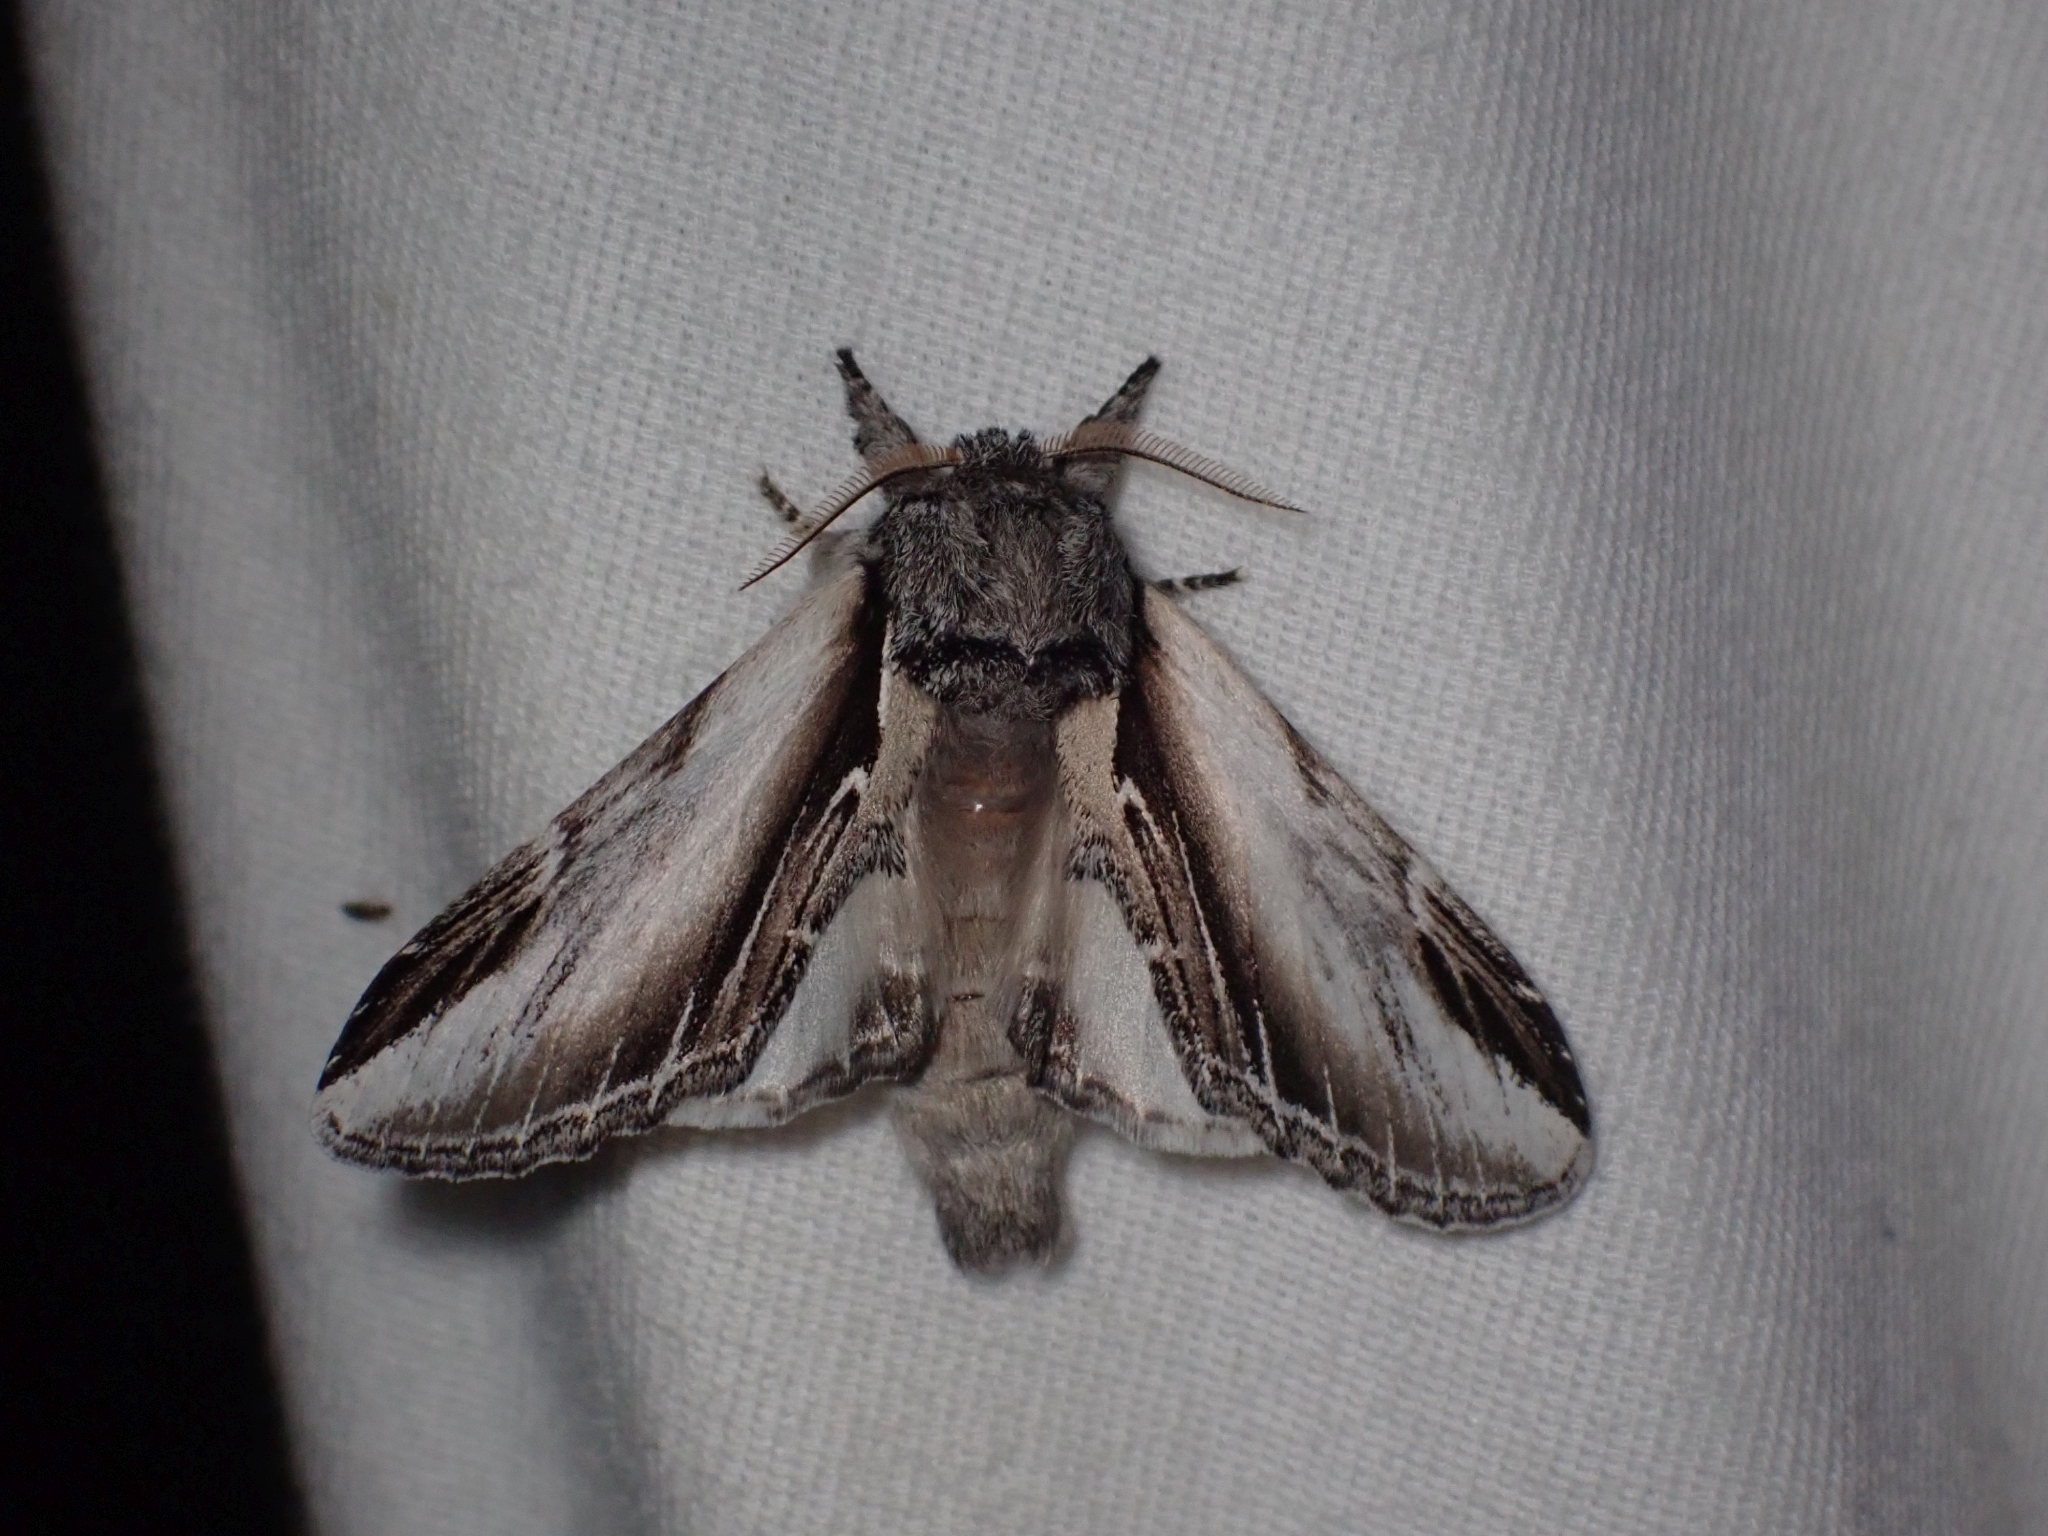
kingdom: Animalia
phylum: Arthropoda
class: Insecta
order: Lepidoptera
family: Notodontidae
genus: Pheosia
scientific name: Pheosia rimosa
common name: Black-rimmed prominent
